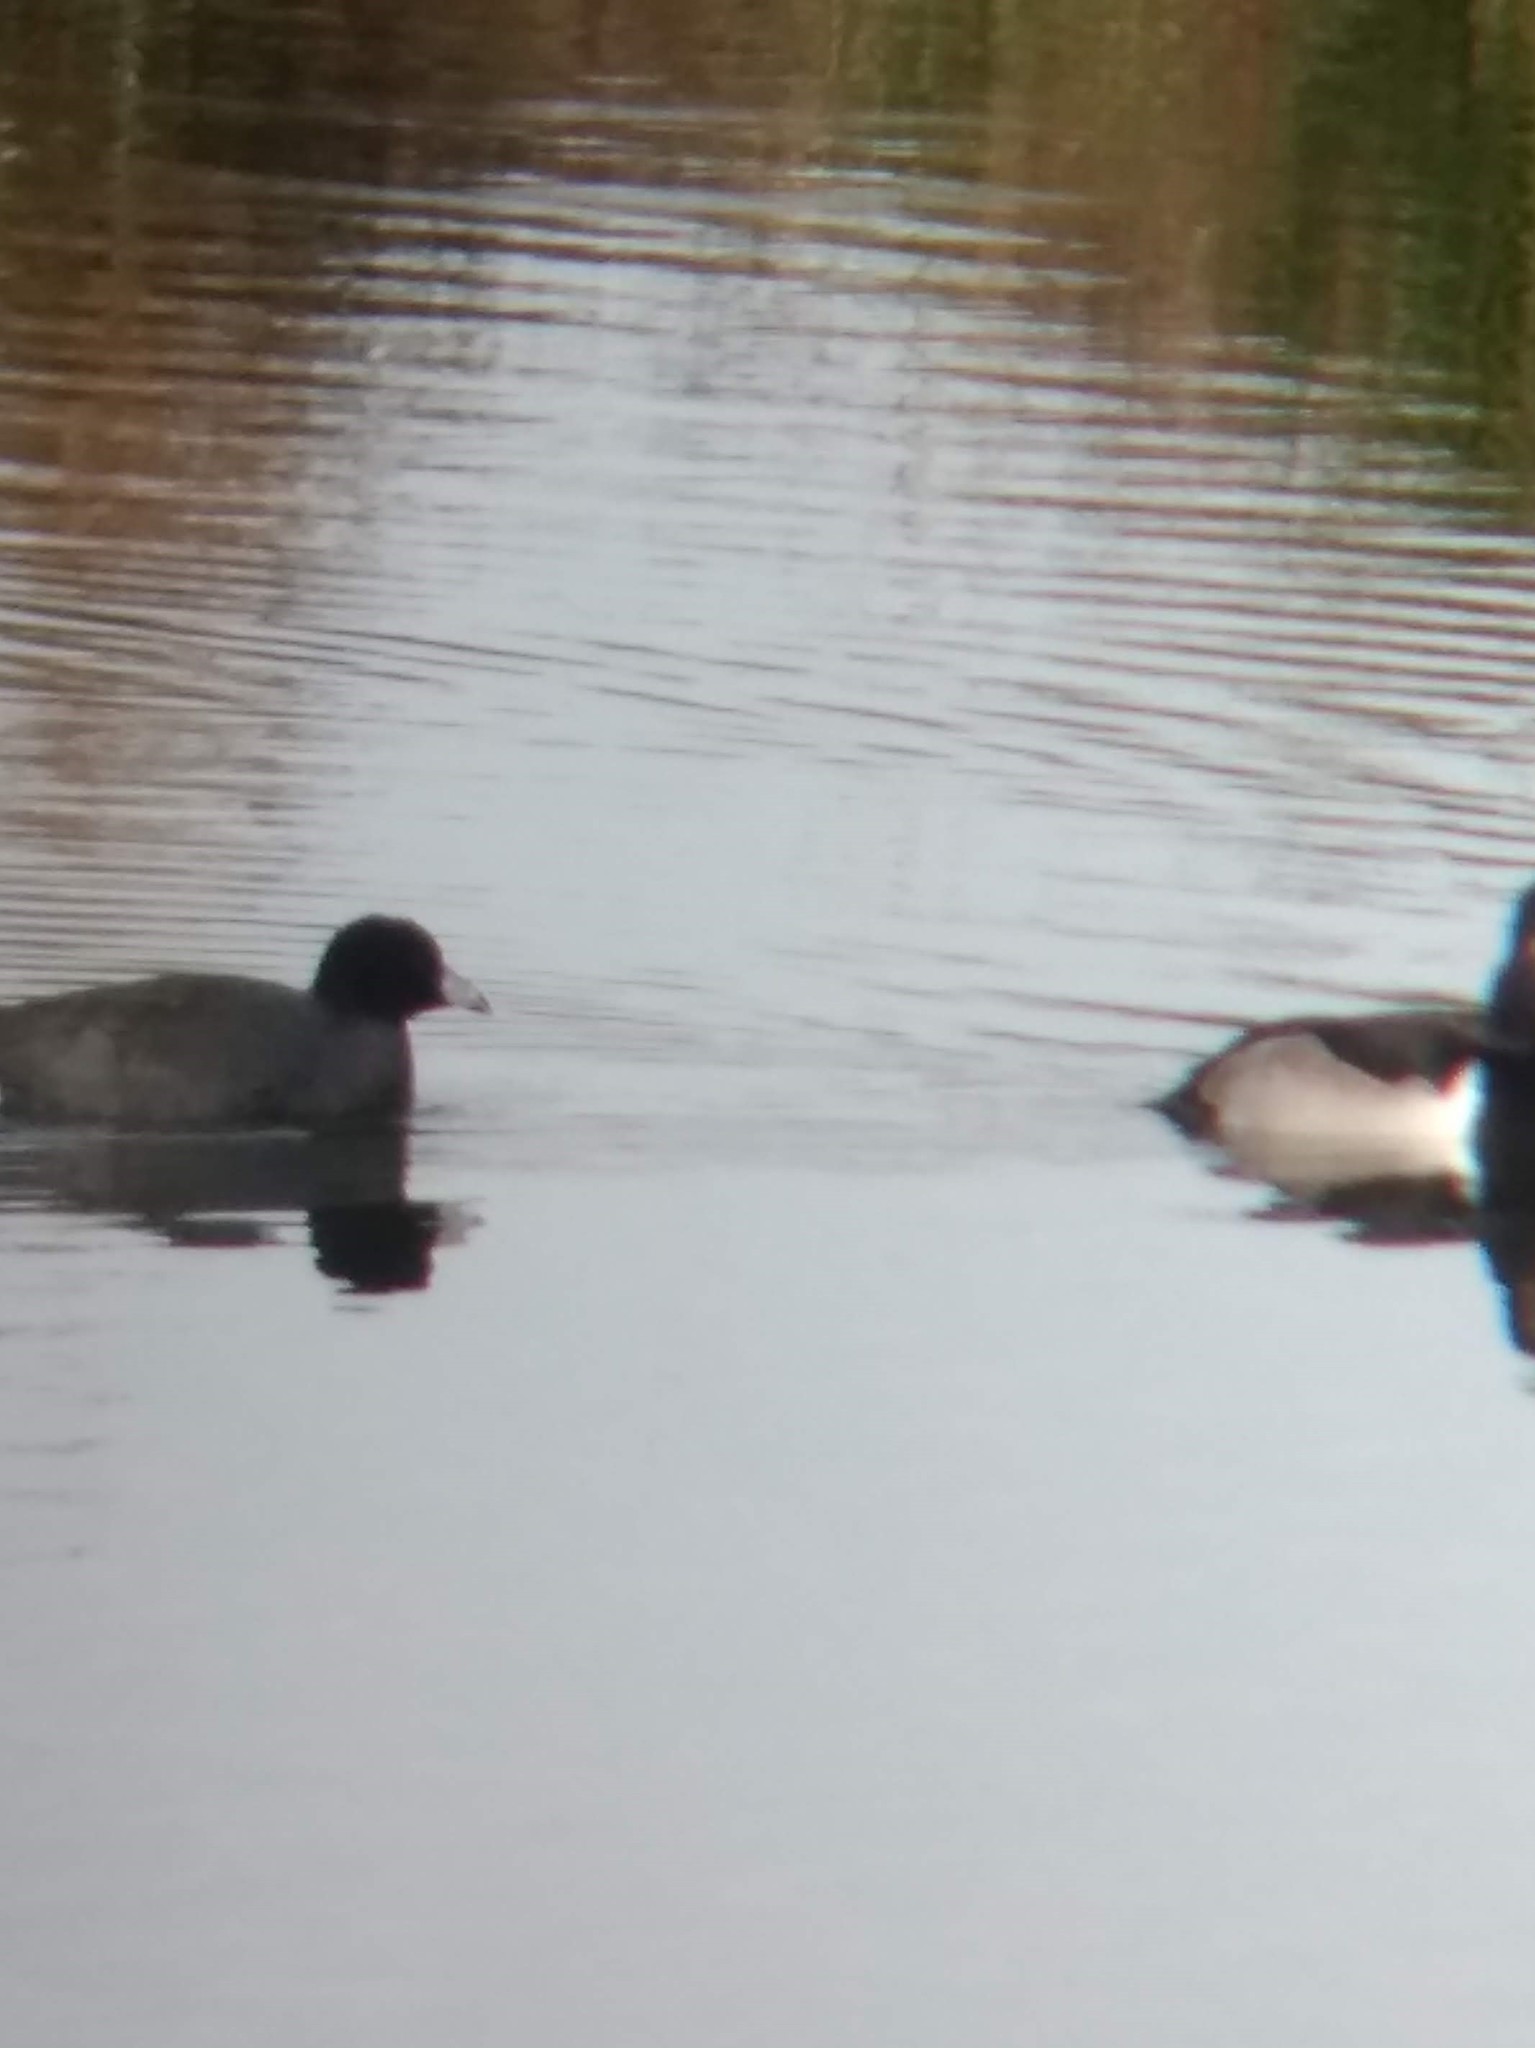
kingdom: Animalia
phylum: Chordata
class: Aves
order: Gruiformes
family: Rallidae
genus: Fulica
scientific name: Fulica americana
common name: American coot
